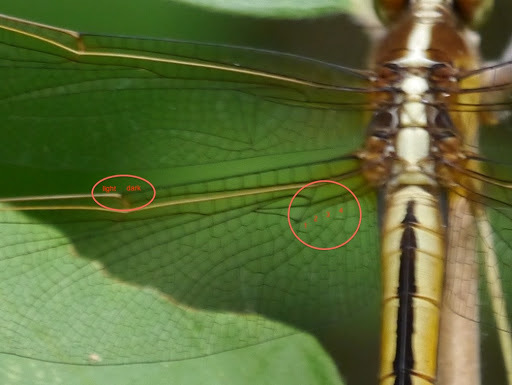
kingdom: Animalia
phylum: Arthropoda
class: Insecta
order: Odonata
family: Libellulidae
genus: Libellula
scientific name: Libellula needhami
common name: Needham's skimmer
